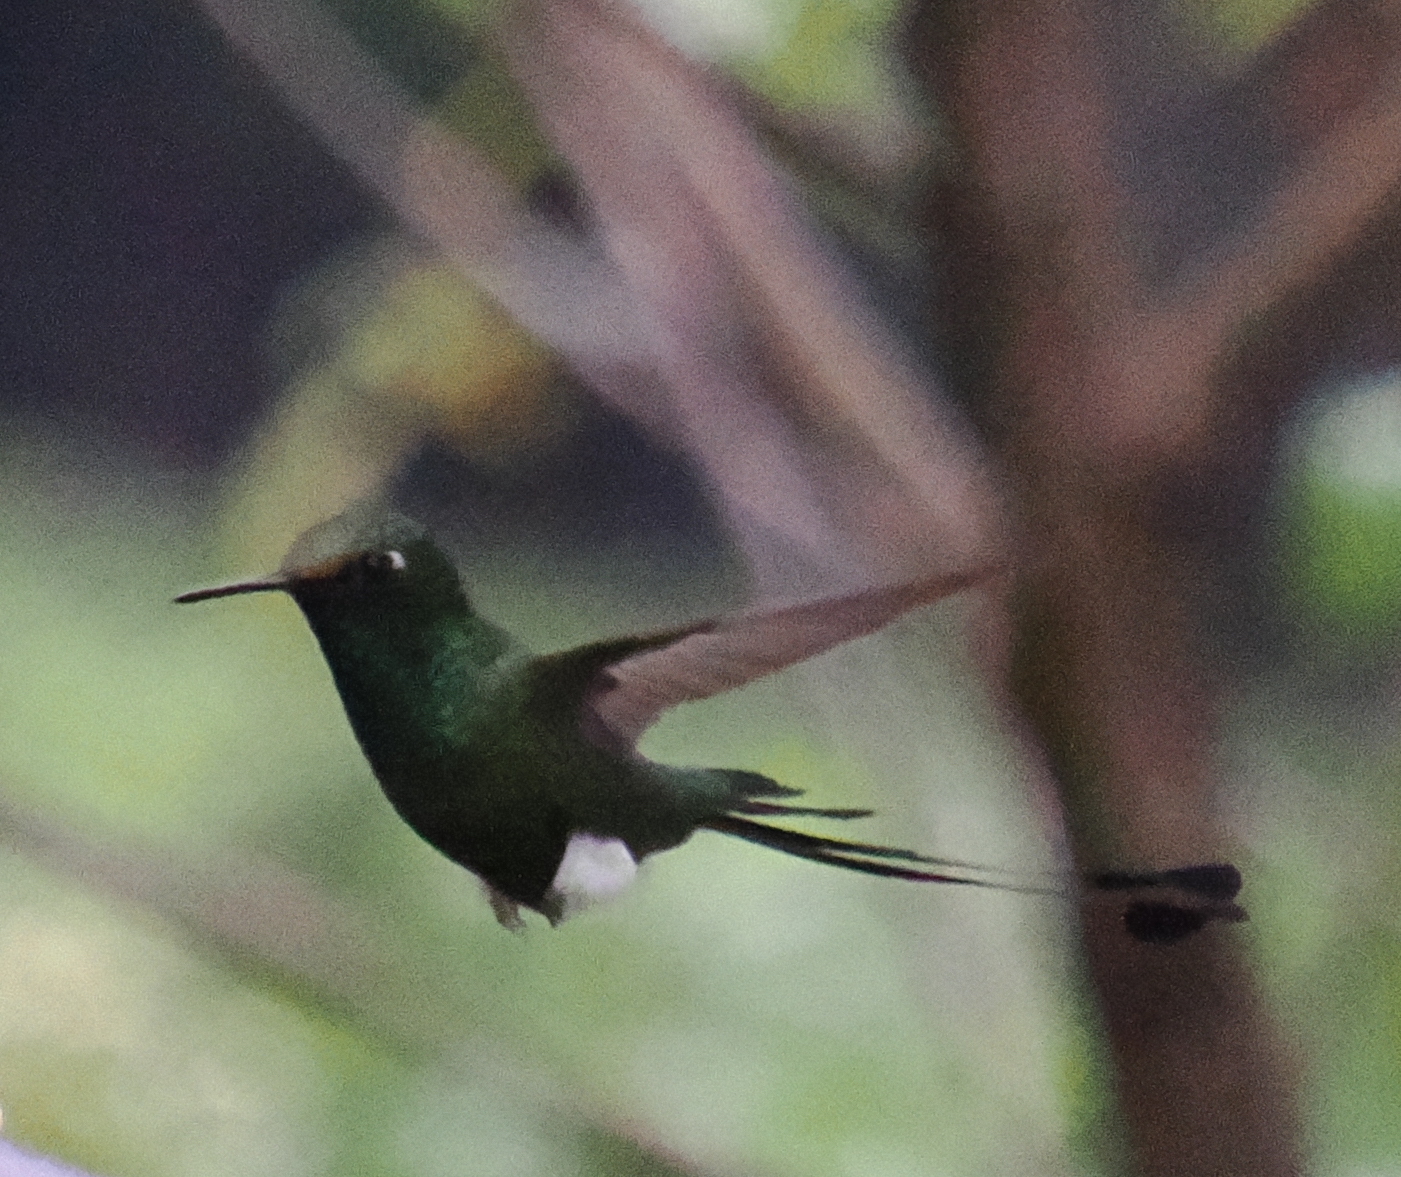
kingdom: Animalia
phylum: Chordata
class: Aves
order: Apodiformes
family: Trochilidae
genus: Ocreatus
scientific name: Ocreatus underwoodii
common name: Booted racket-tail
